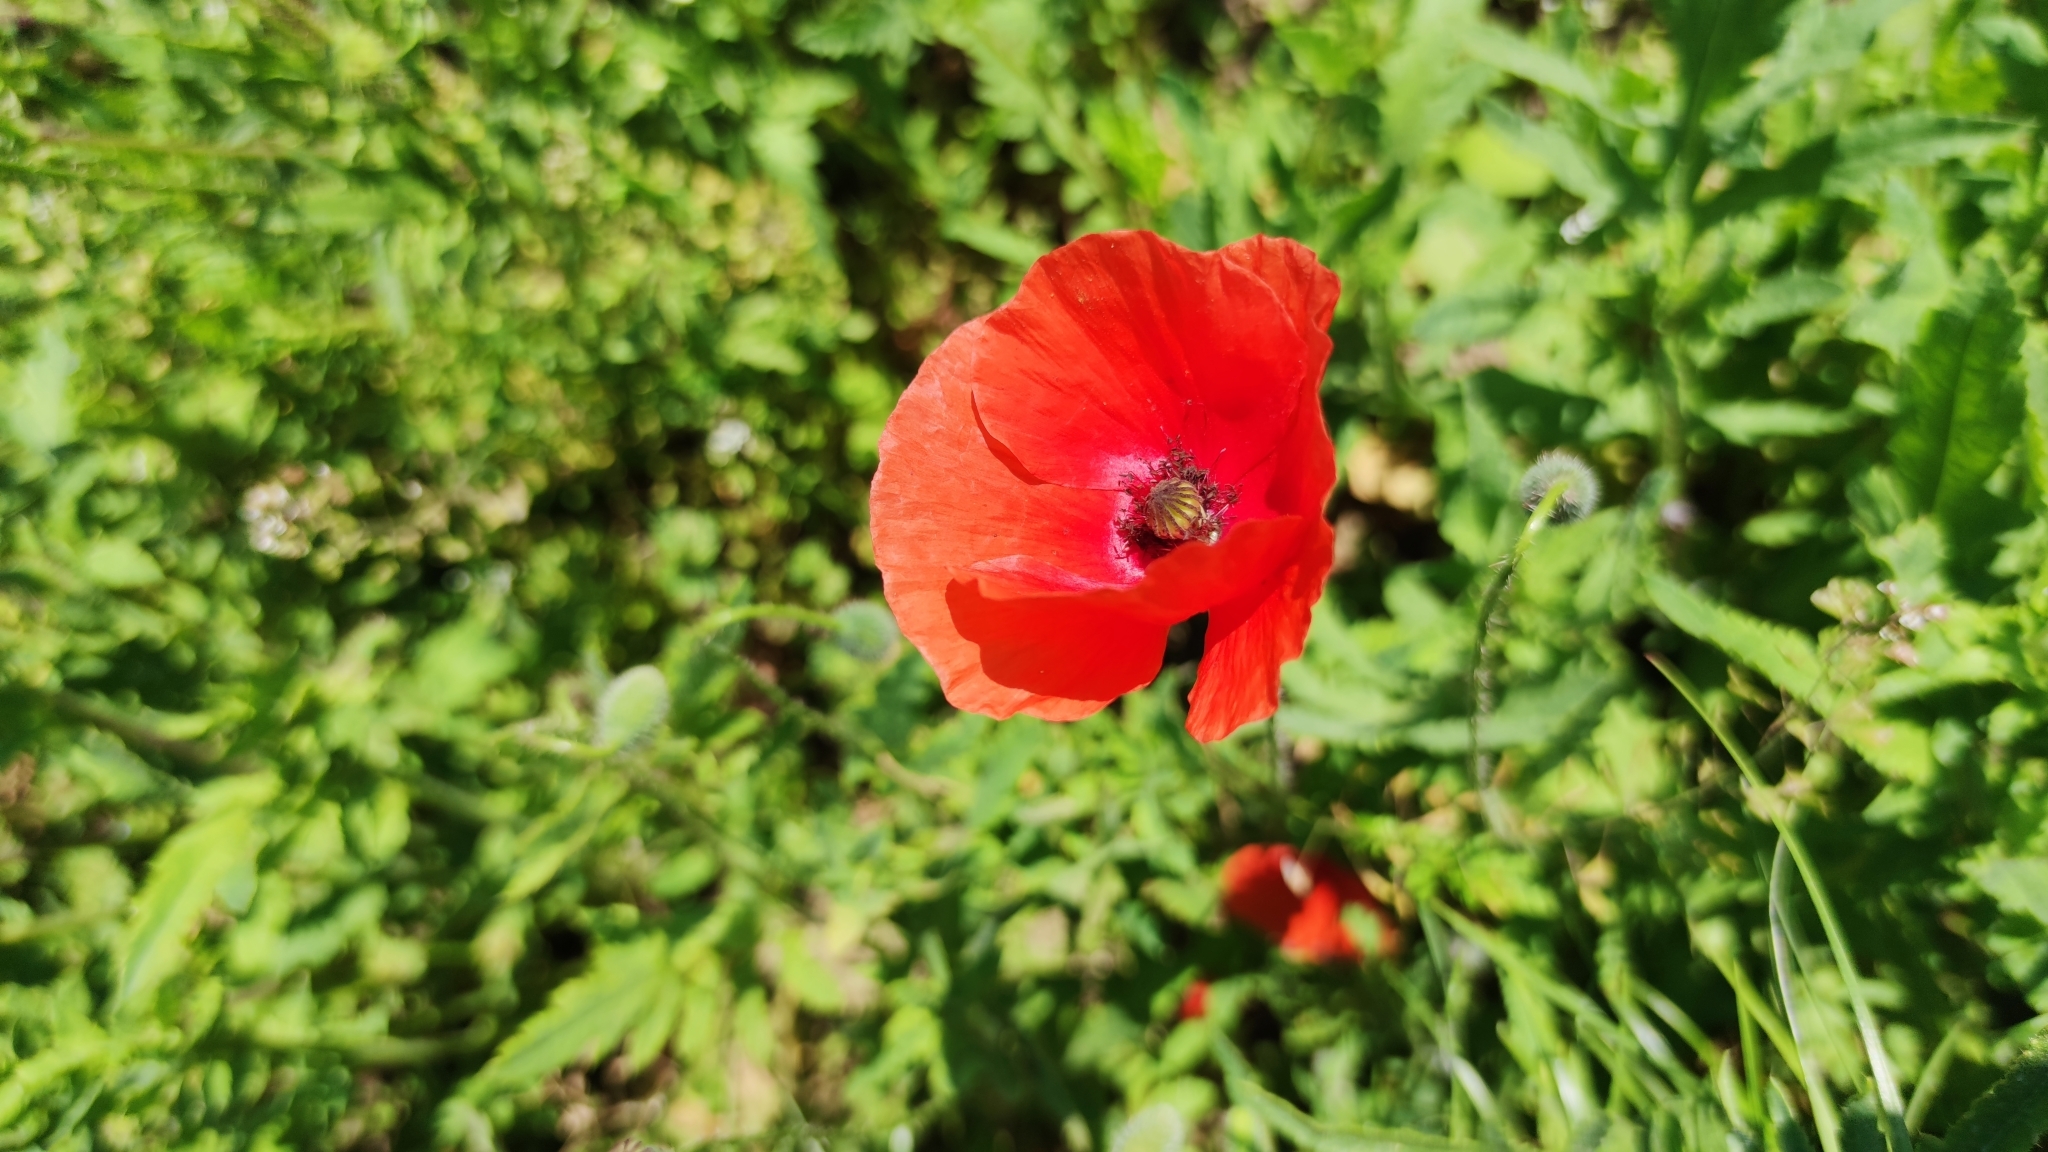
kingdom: Plantae
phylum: Tracheophyta
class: Magnoliopsida
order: Ranunculales
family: Papaveraceae
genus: Papaver
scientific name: Papaver rhoeas
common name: Corn poppy
